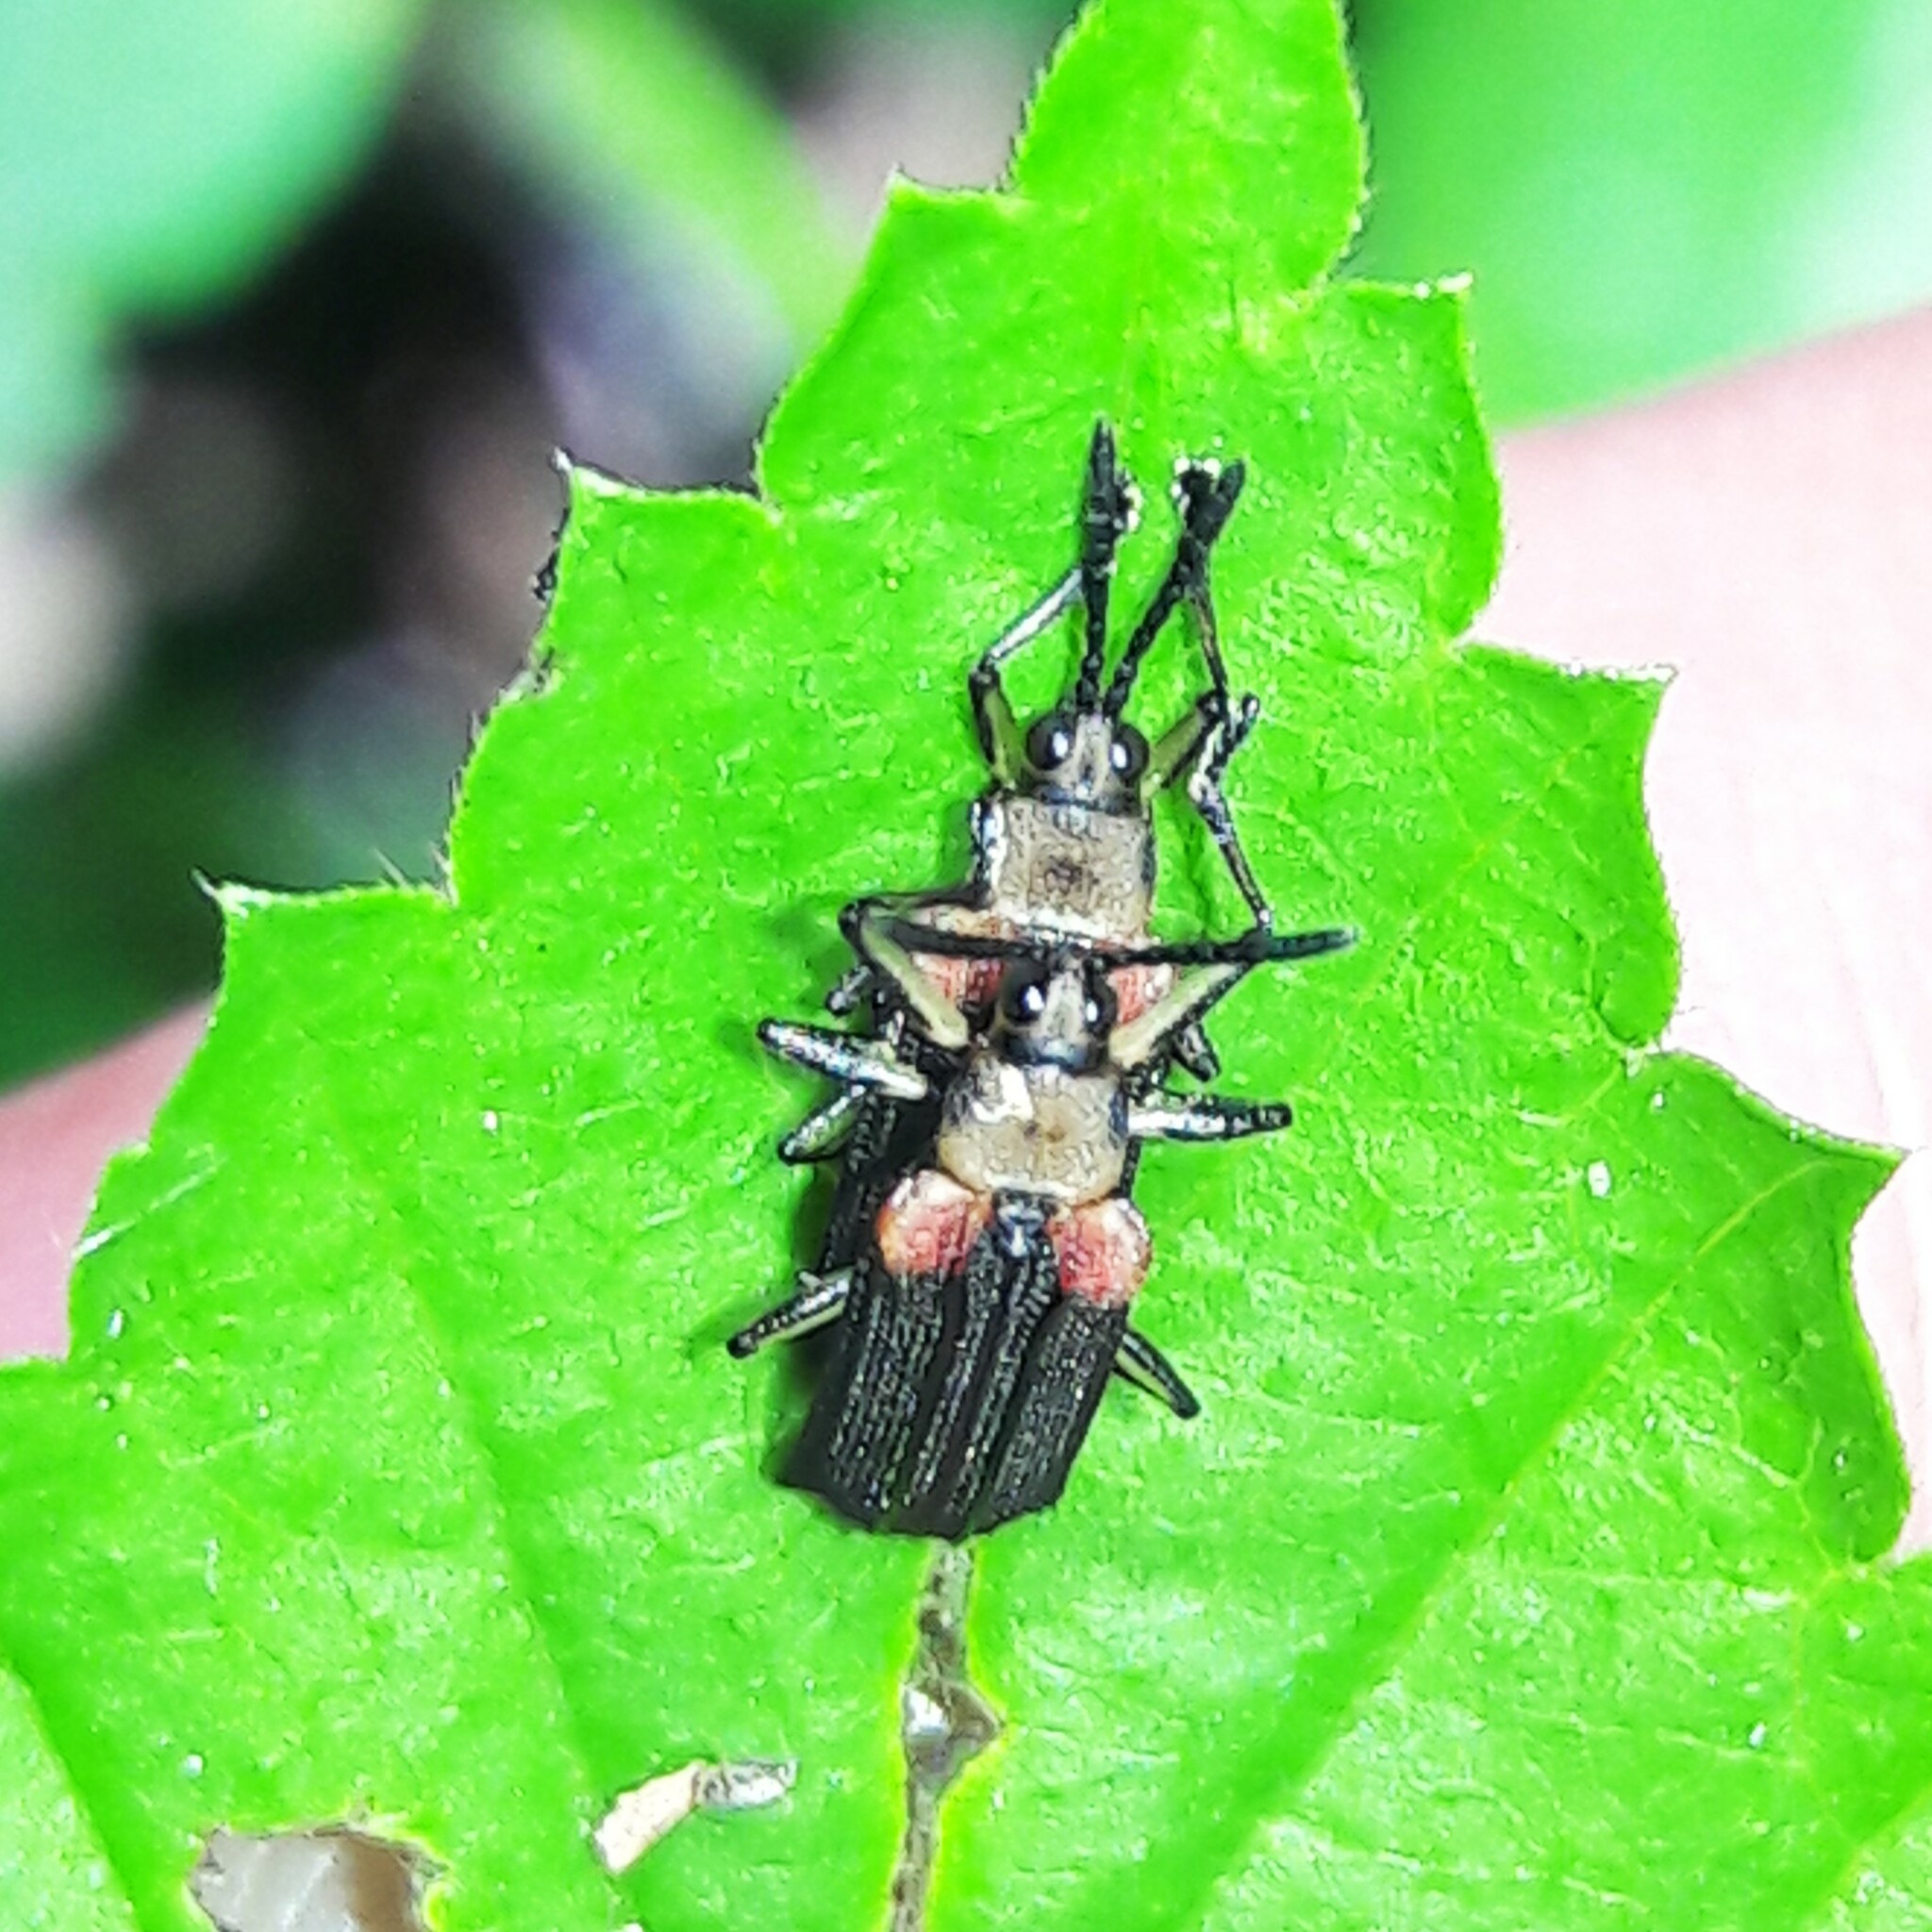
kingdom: Animalia
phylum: Arthropoda
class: Insecta
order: Coleoptera
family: Chrysomelidae
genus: Heterispa
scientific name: Heterispa vinula
